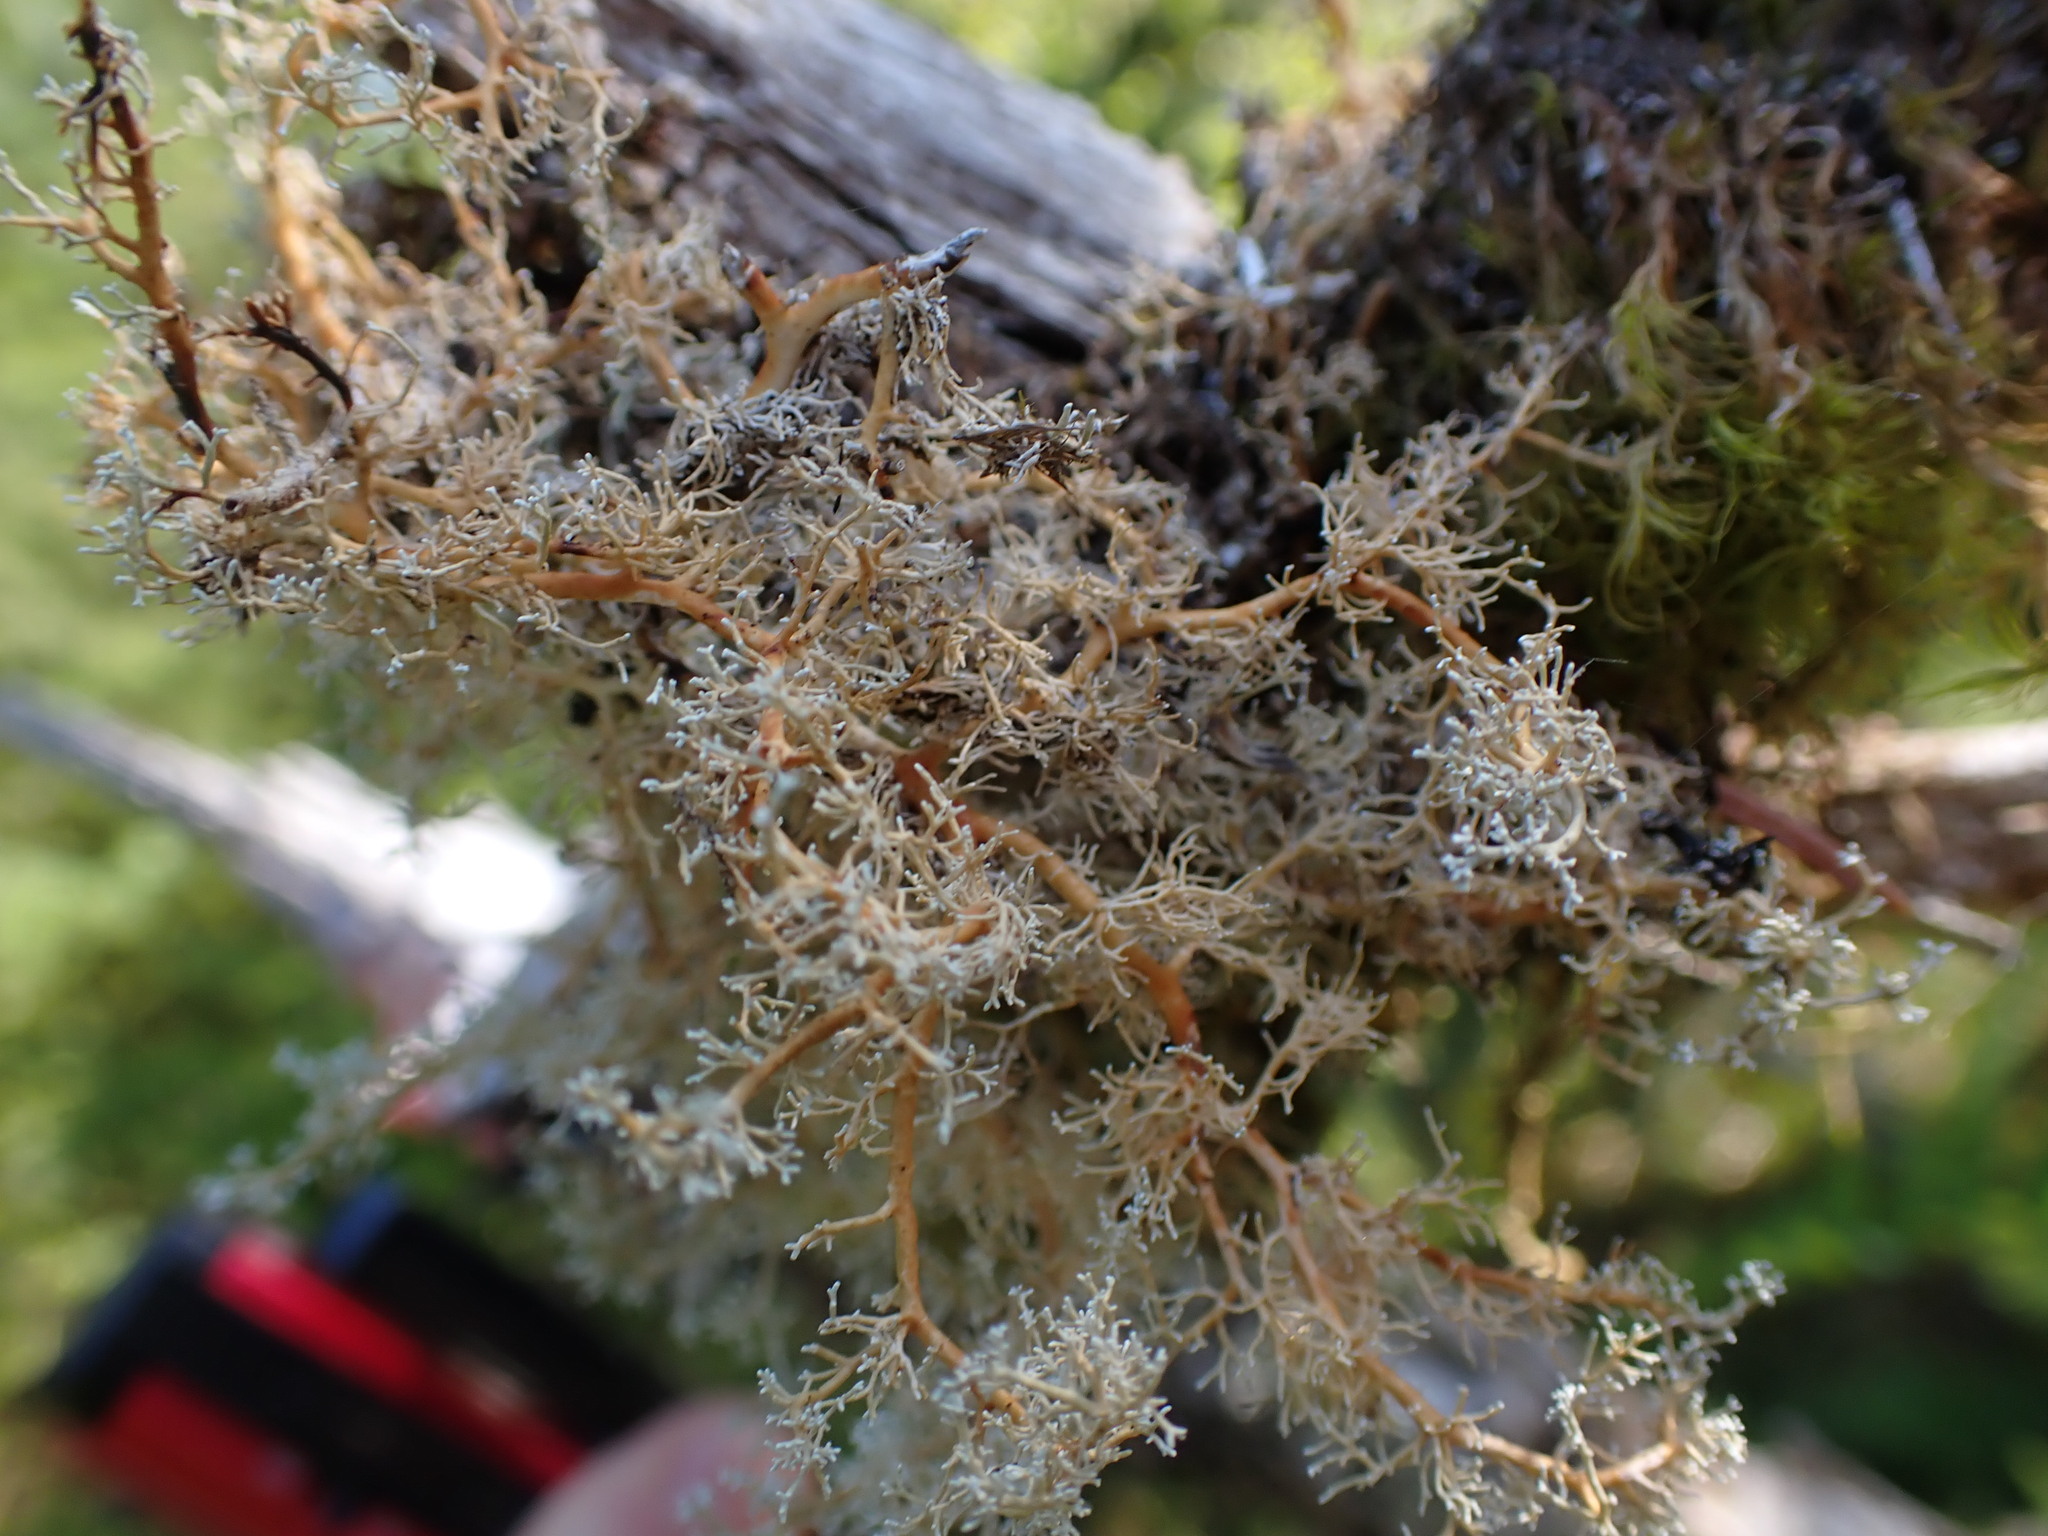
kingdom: Fungi
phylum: Ascomycota
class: Lecanoromycetes
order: Lecanorales
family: Sphaerophoraceae
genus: Sphaerophorus
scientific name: Sphaerophorus globosus
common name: Globe ball lichen
